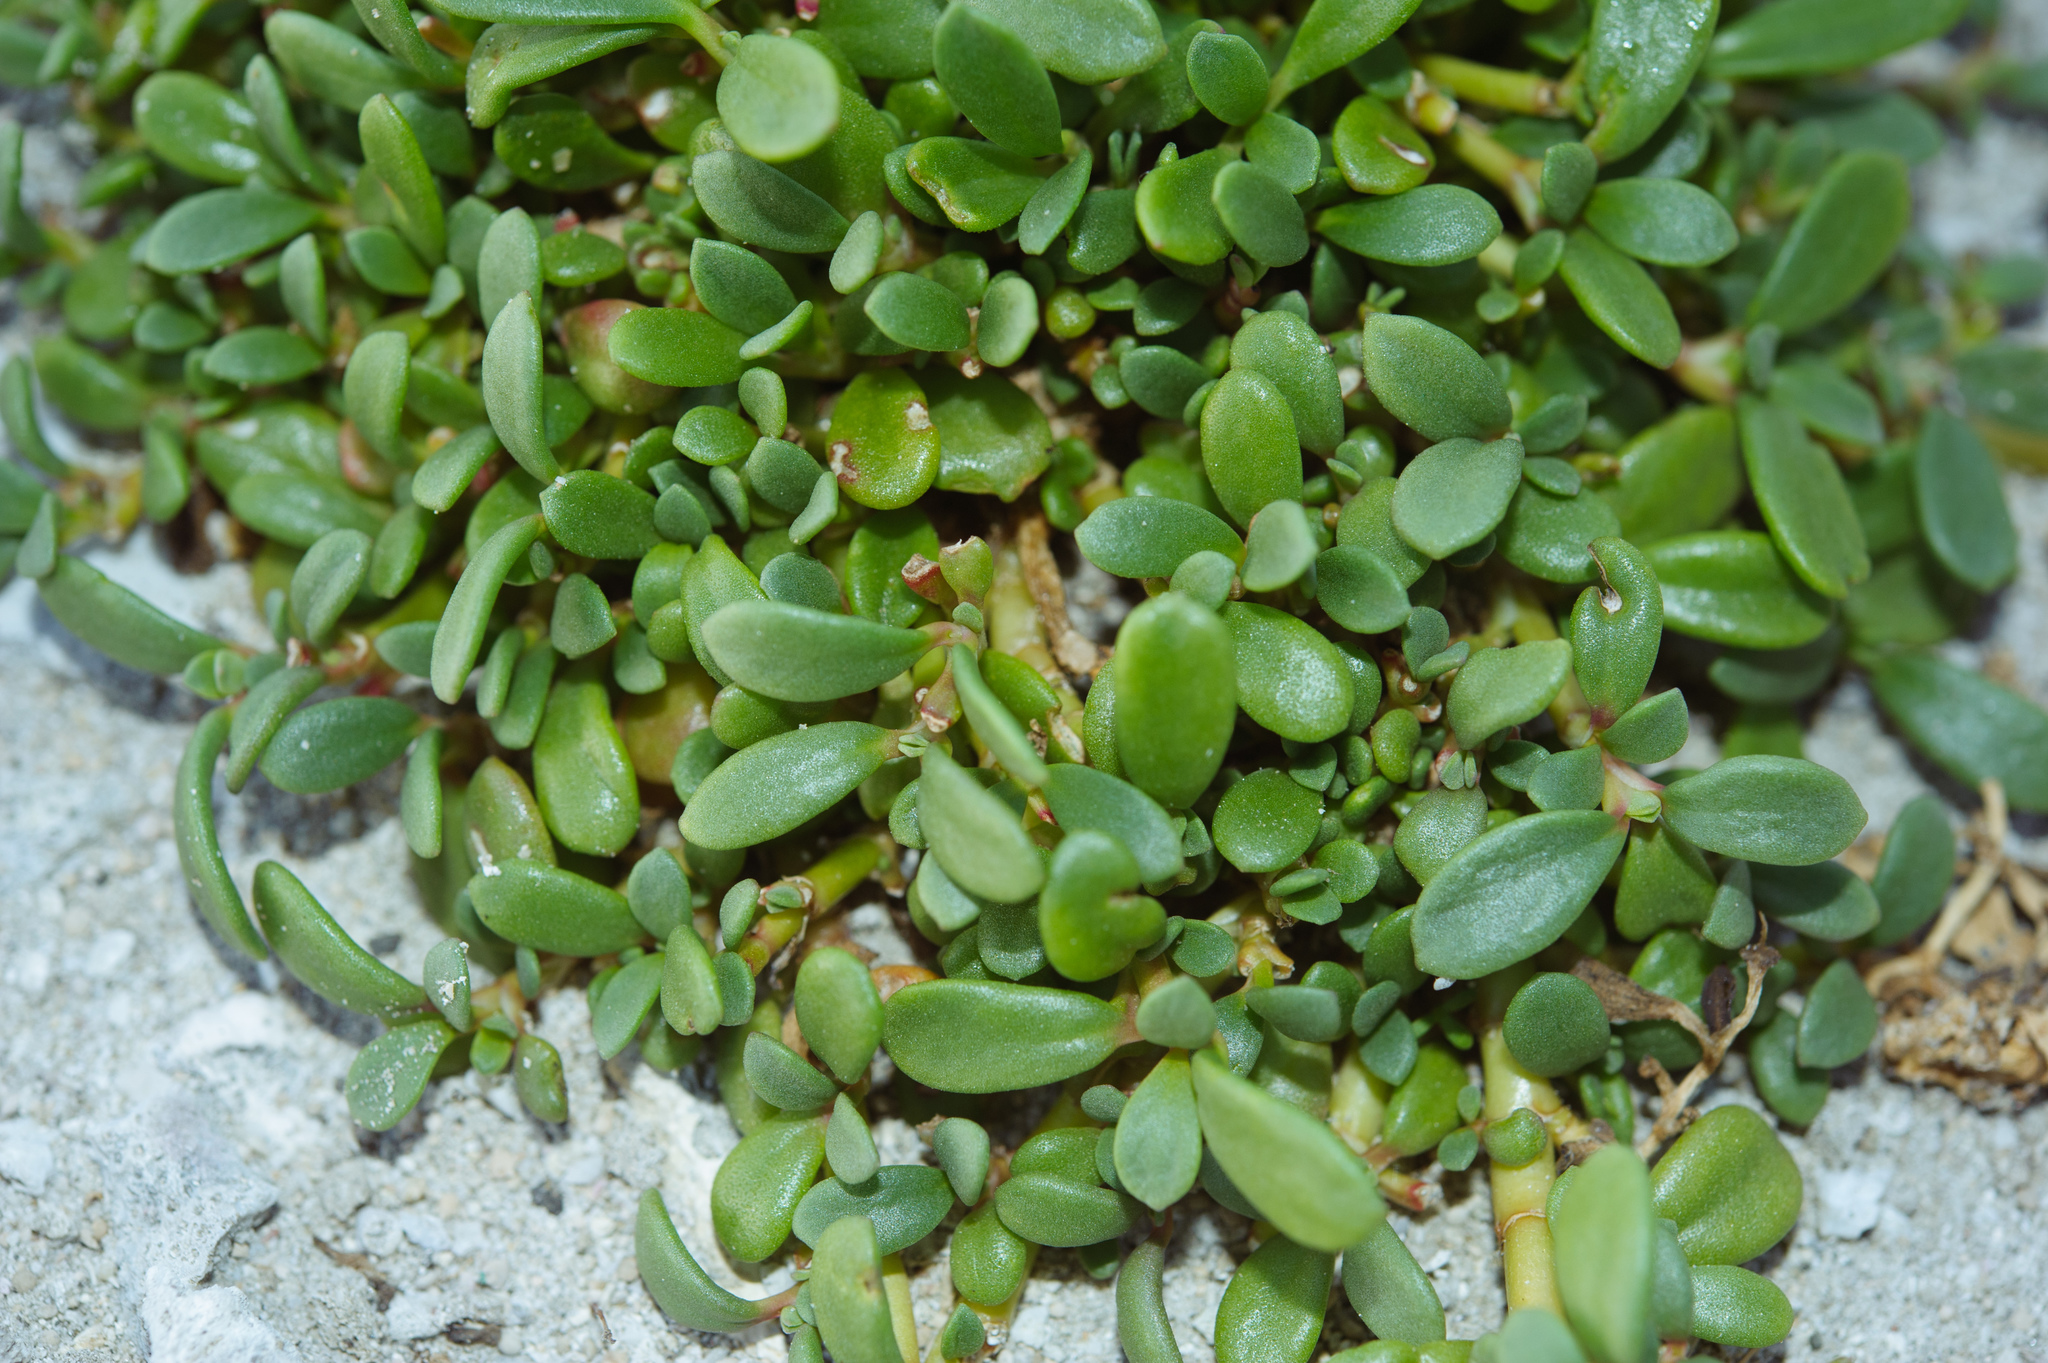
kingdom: Plantae
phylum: Tracheophyta
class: Magnoliopsida
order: Caryophyllales
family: Aizoaceae
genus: Sesuvium
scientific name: Sesuvium portulacastrum
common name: Sea-purslane
